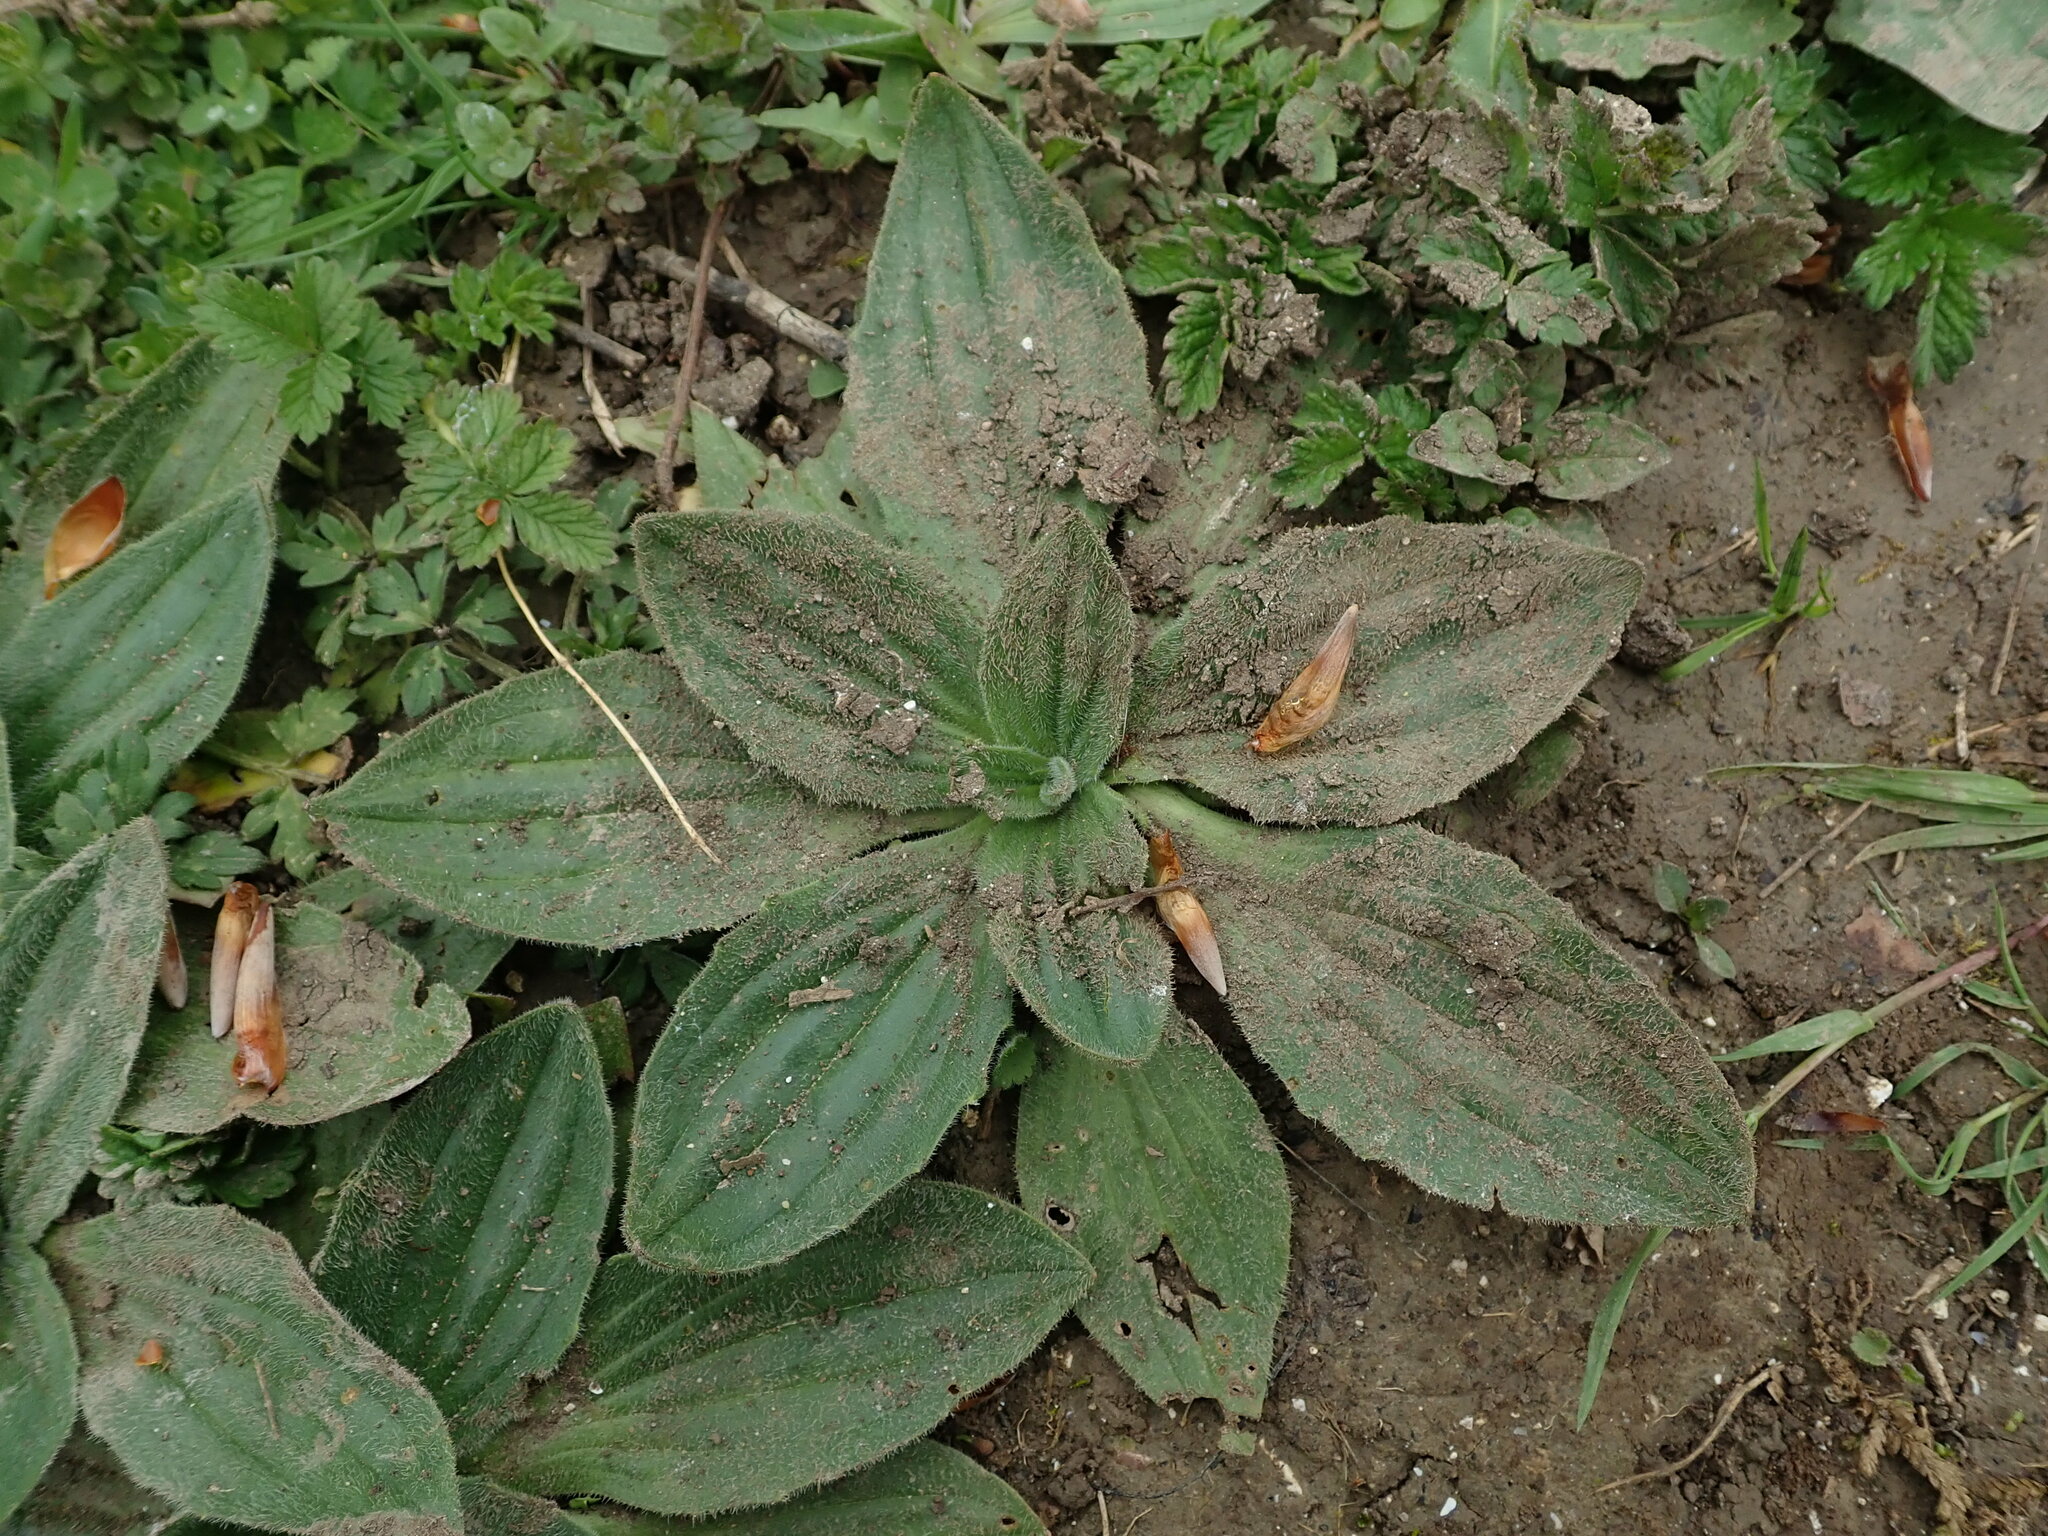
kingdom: Plantae
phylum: Tracheophyta
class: Magnoliopsida
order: Lamiales
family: Plantaginaceae
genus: Plantago
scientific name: Plantago media
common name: Hoary plantain
